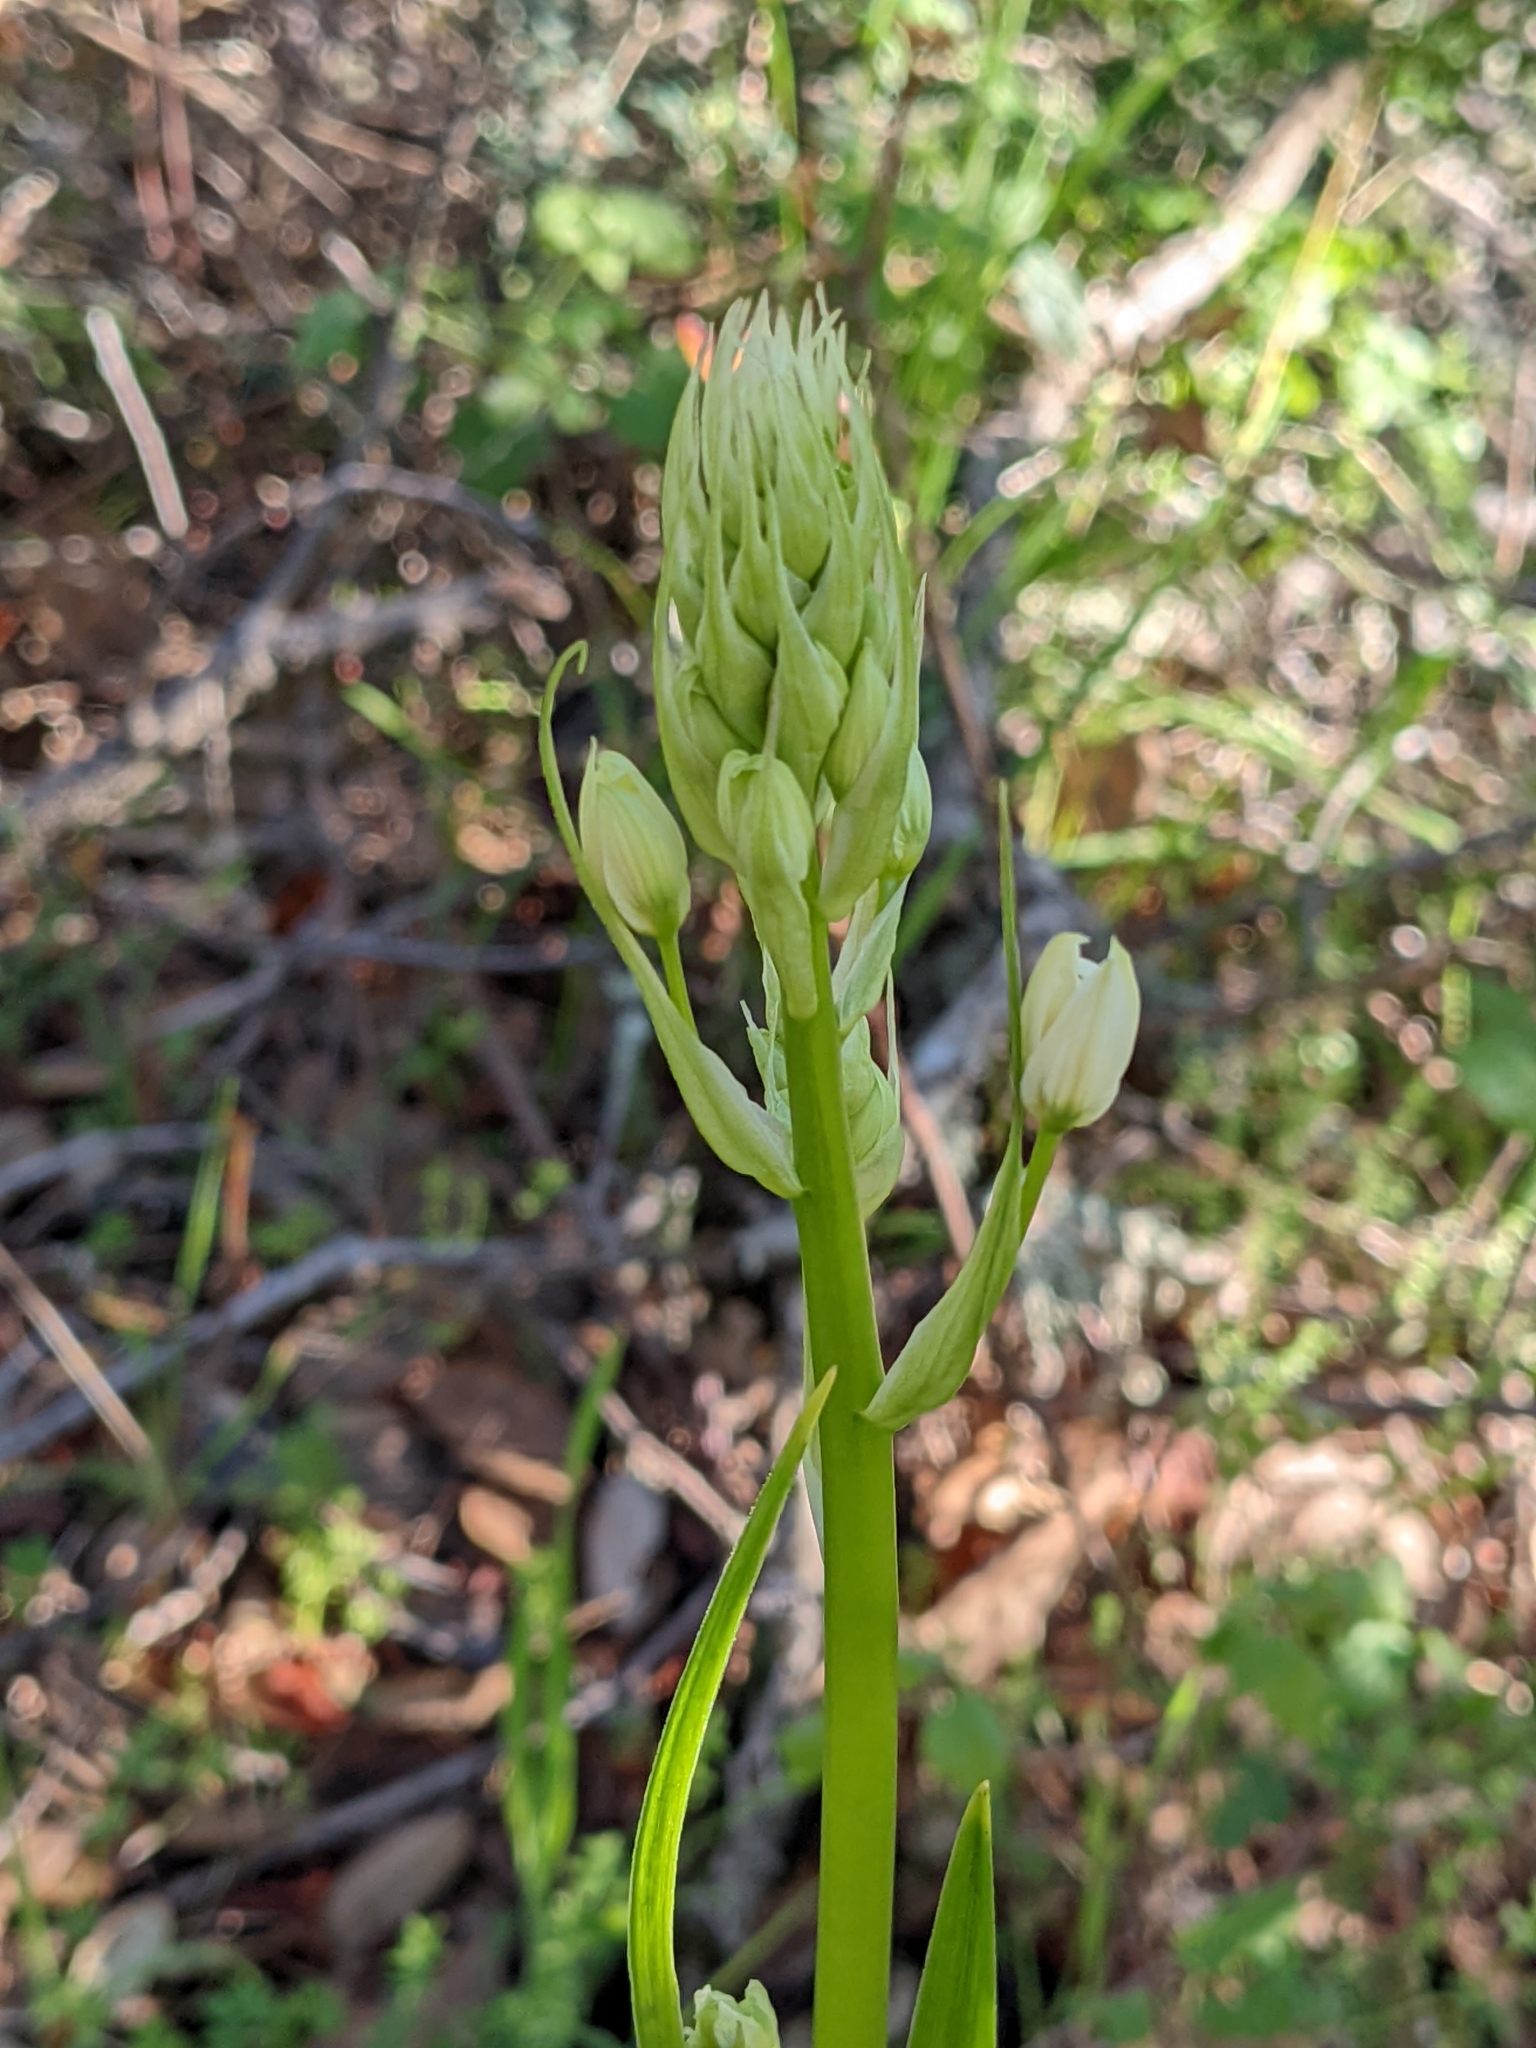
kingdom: Plantae
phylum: Tracheophyta
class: Liliopsida
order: Liliales
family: Melanthiaceae
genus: Toxicoscordion
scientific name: Toxicoscordion fremontii
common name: Fremont's death camas
